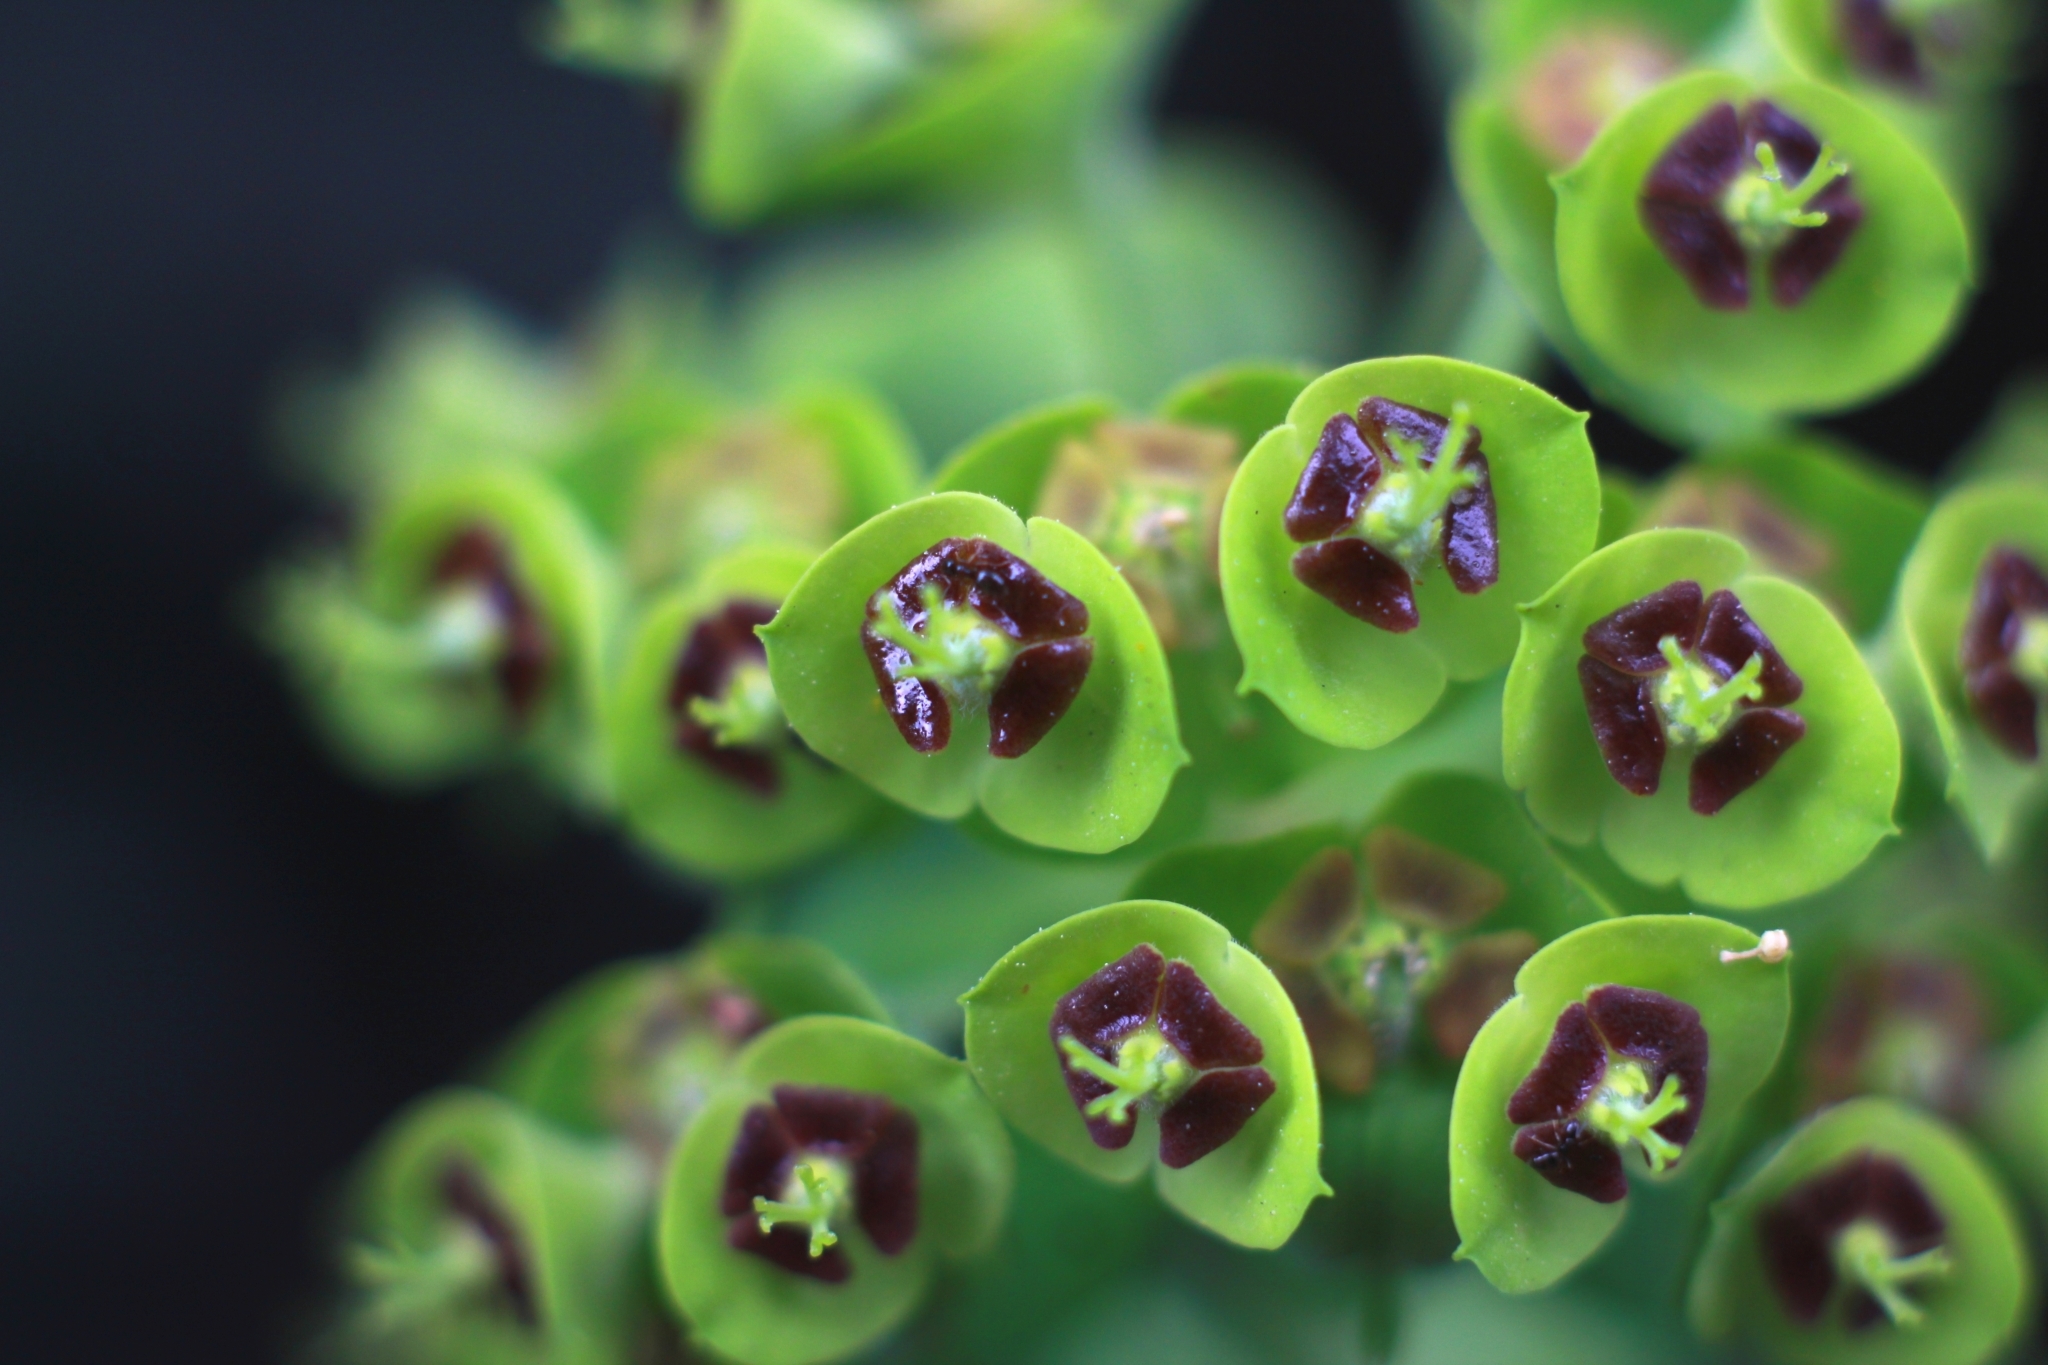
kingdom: Plantae
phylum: Tracheophyta
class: Magnoliopsida
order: Malpighiales
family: Euphorbiaceae
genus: Euphorbia
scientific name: Euphorbia characias
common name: Mediterranean spurge
